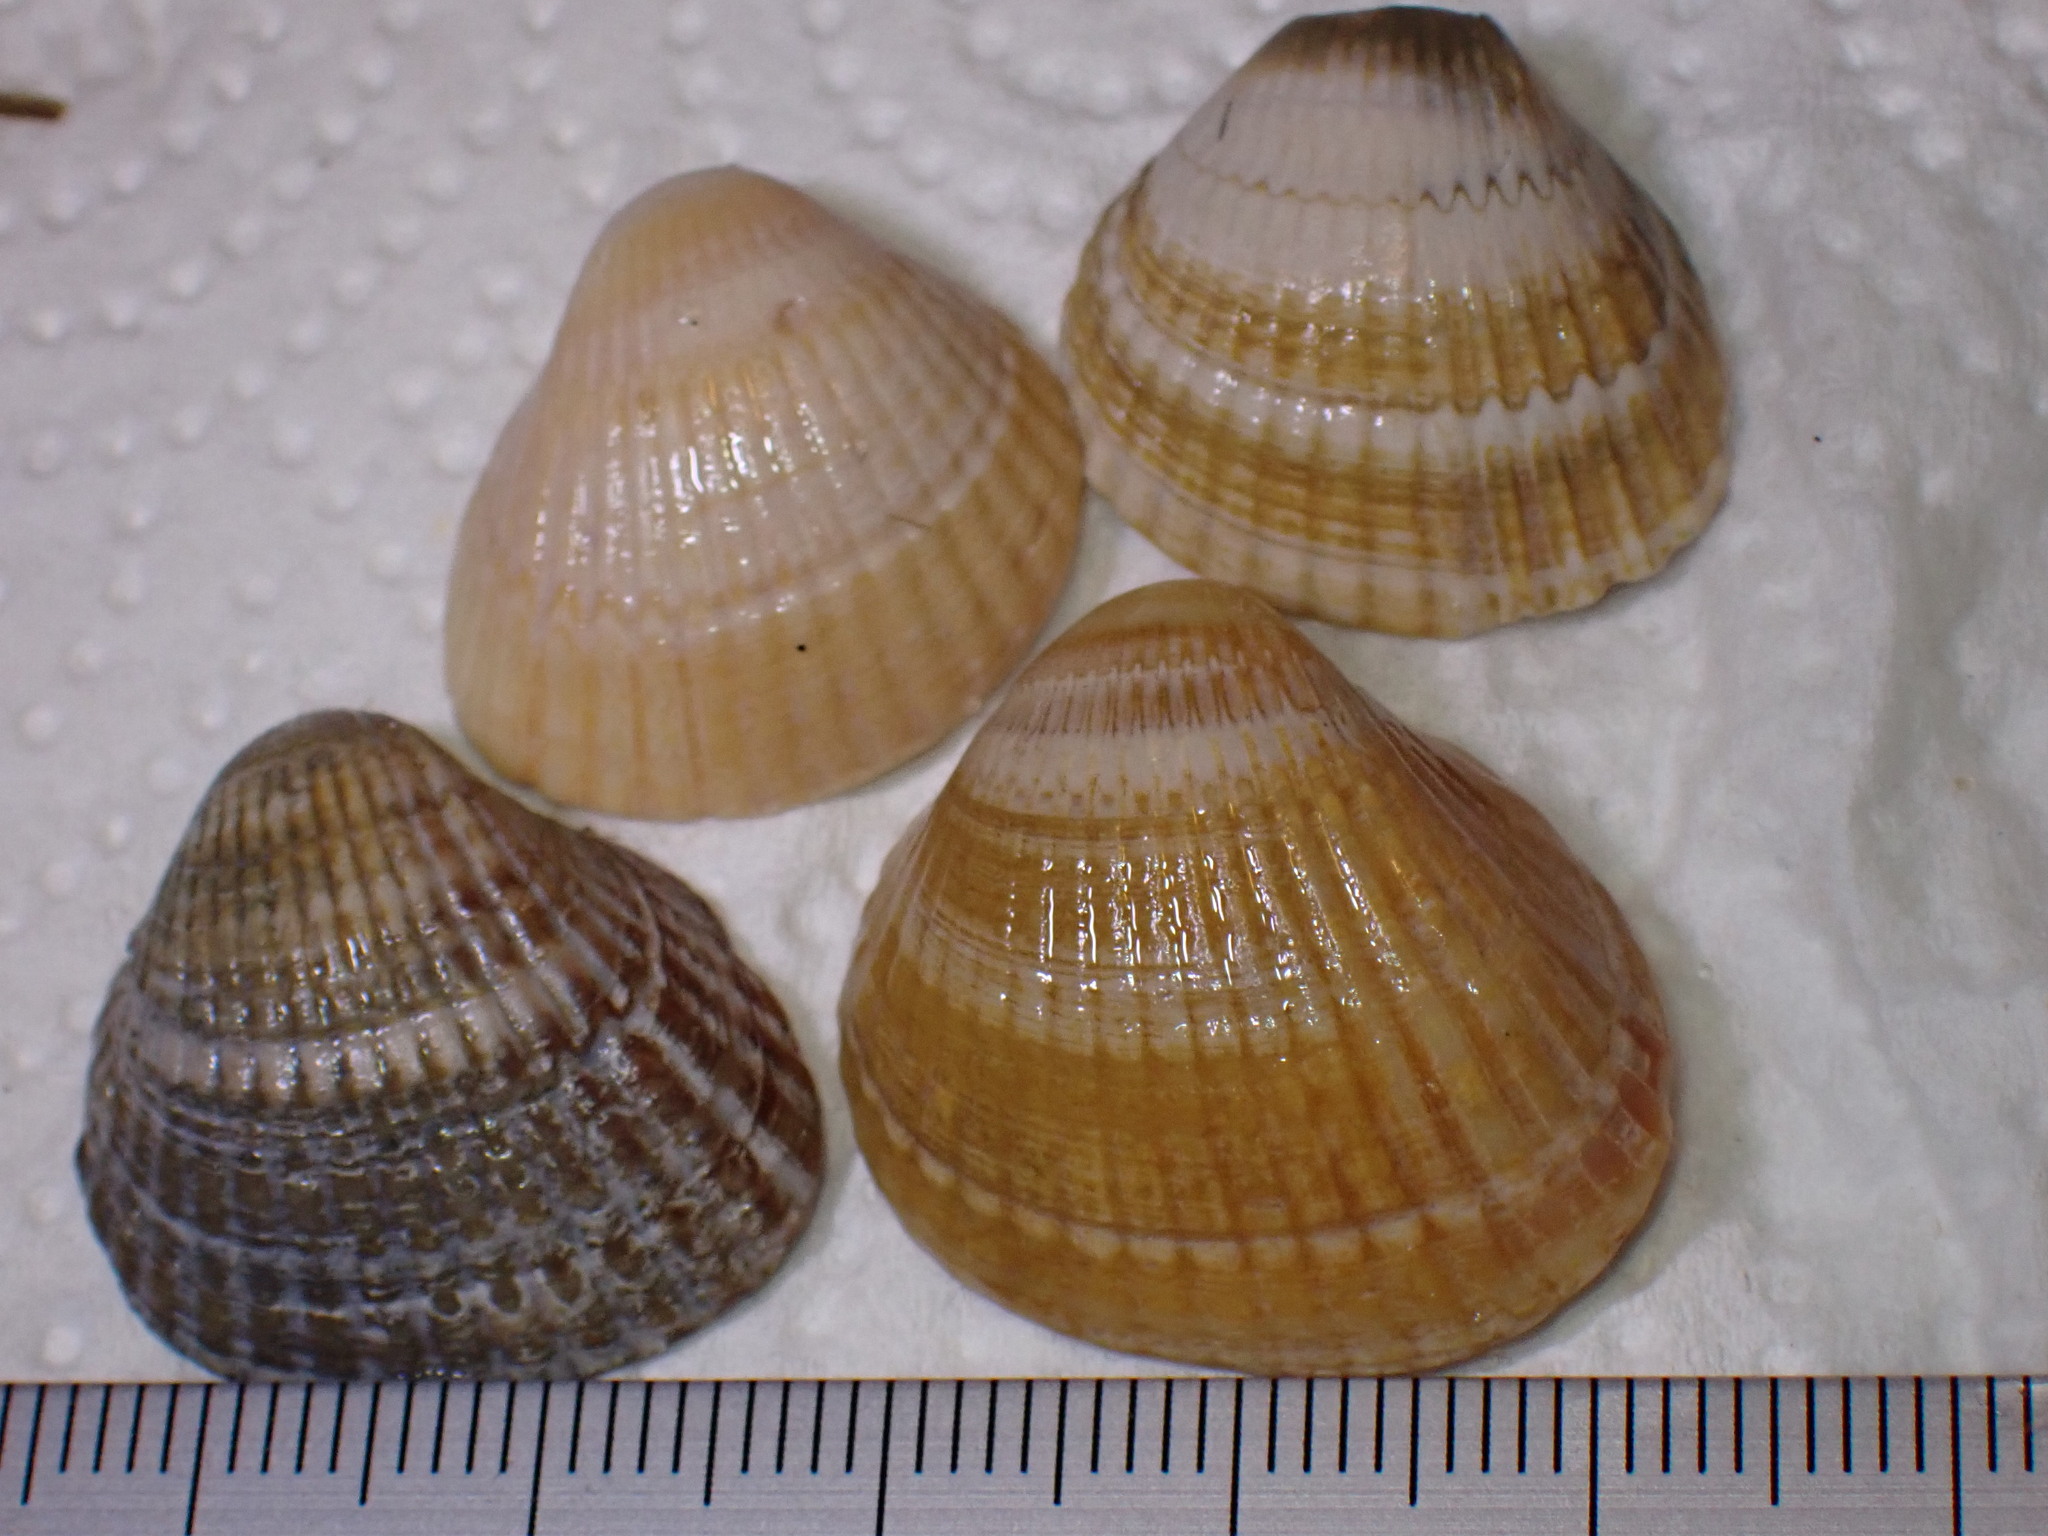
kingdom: Animalia
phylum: Mollusca
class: Bivalvia
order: Cardiida
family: Cardiidae
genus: Cerastoderma
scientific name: Cerastoderma glaucum
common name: Lagoon cockle
